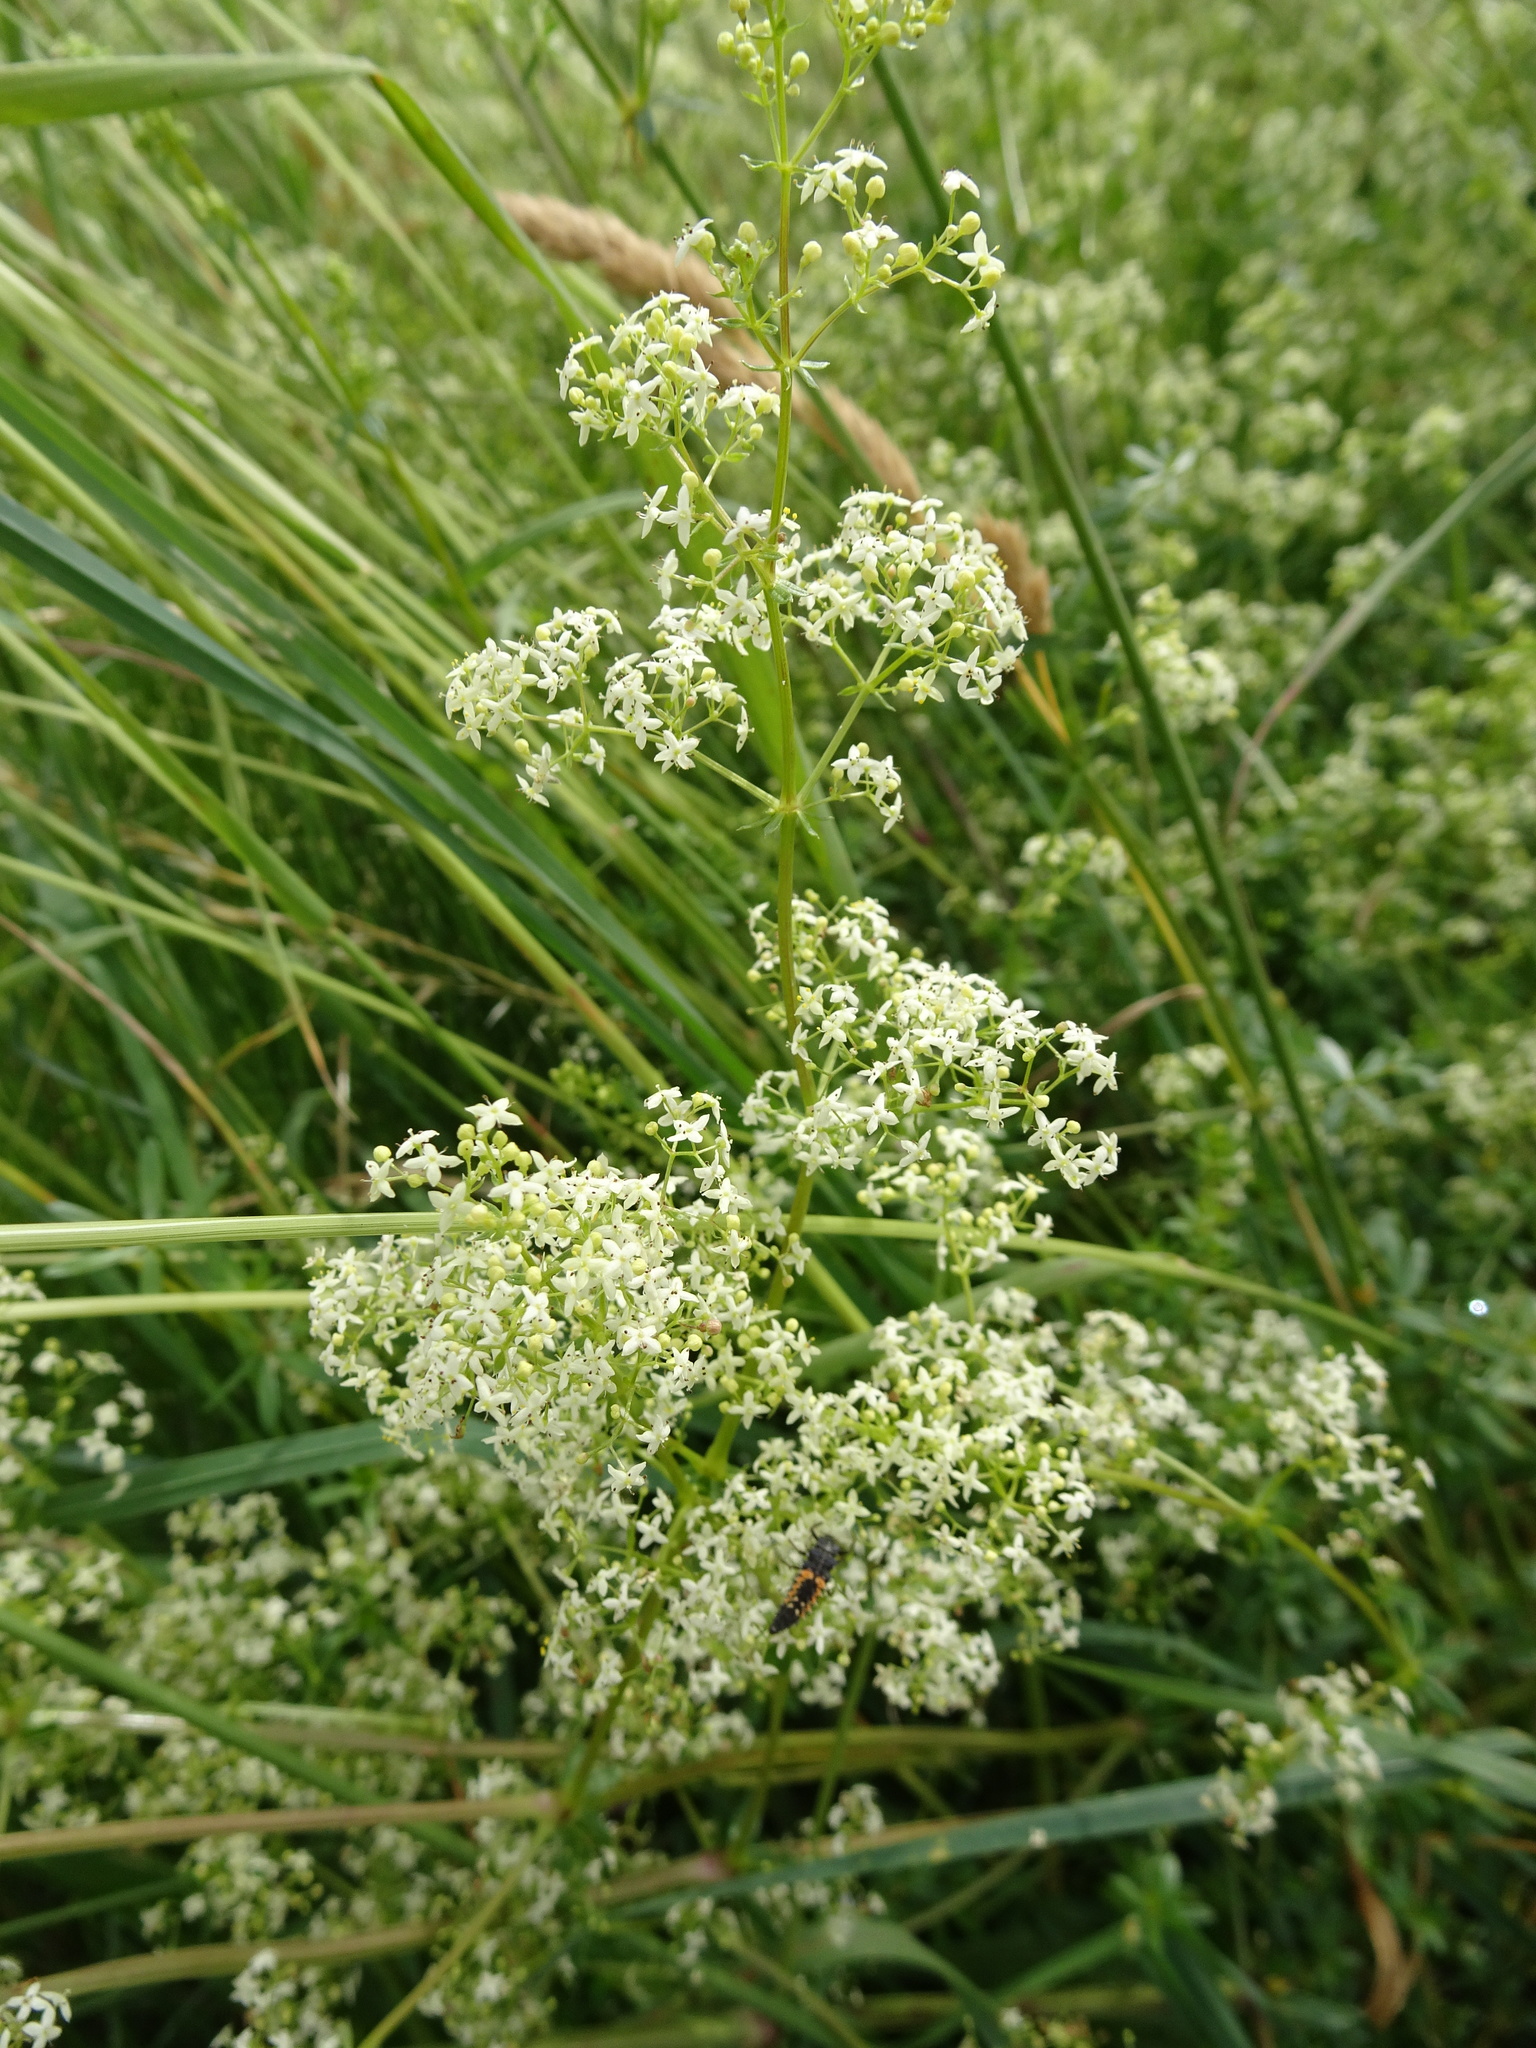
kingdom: Plantae
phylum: Tracheophyta
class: Magnoliopsida
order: Gentianales
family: Rubiaceae
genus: Galium
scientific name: Galium mollugo
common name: Hedge bedstraw
